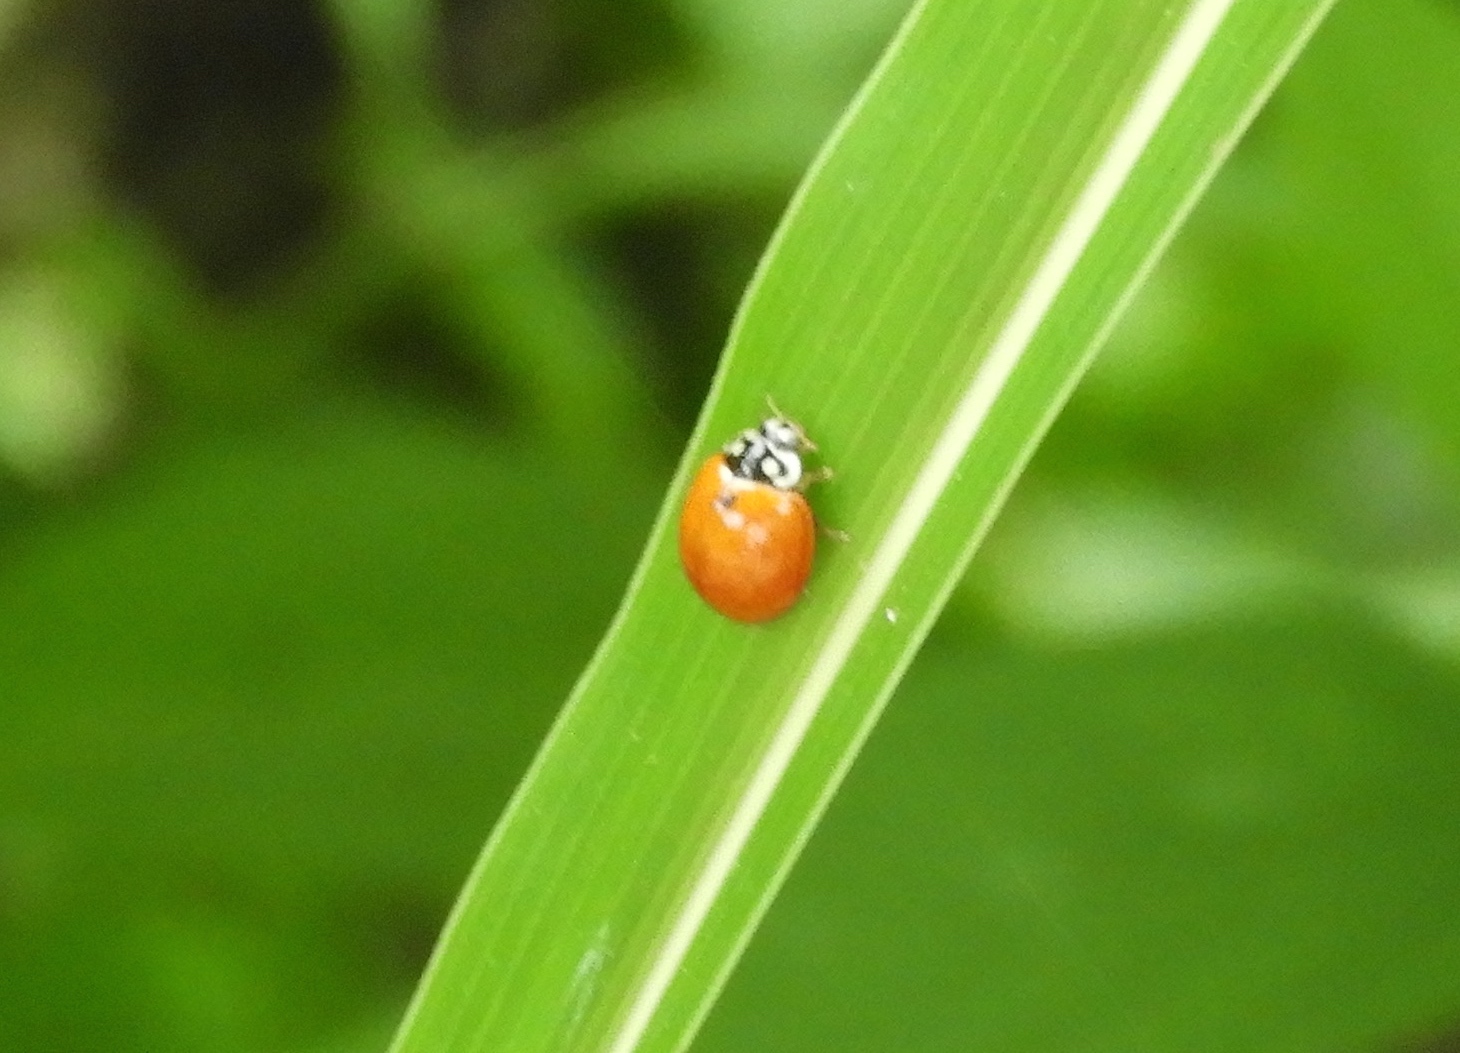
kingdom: Animalia
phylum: Arthropoda
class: Insecta
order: Coleoptera
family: Coccinellidae
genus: Cycloneda
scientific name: Cycloneda sanguinea
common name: Ladybird beetle
